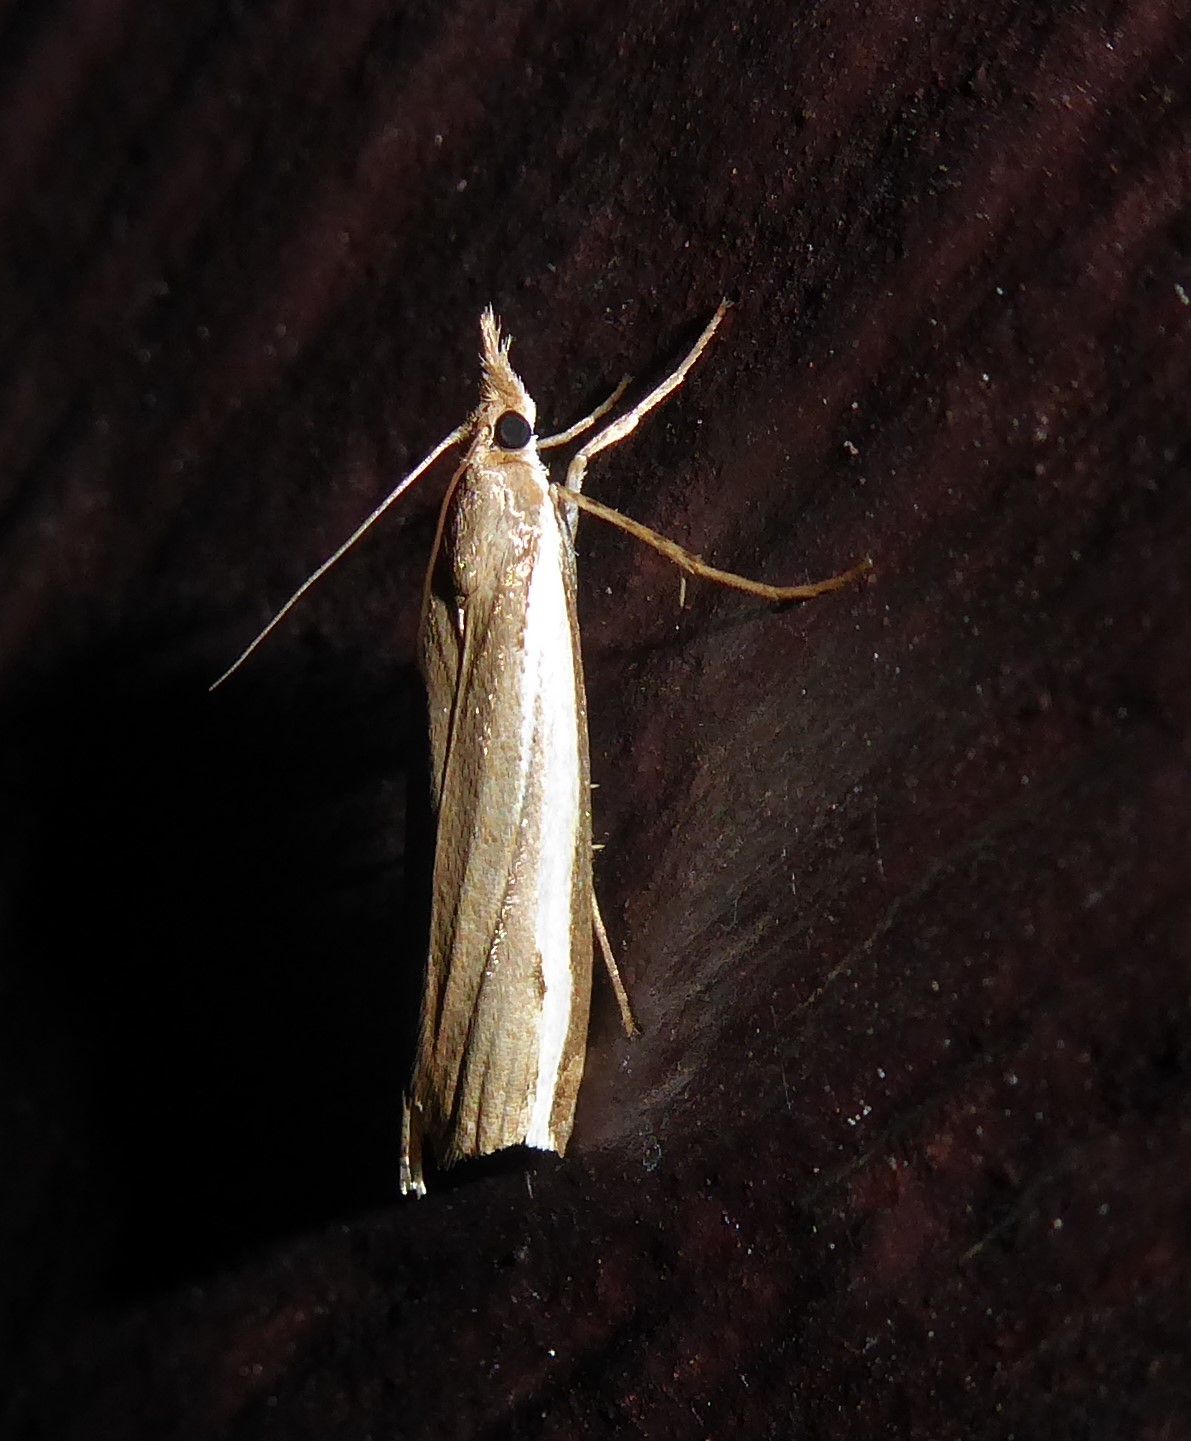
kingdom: Animalia
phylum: Arthropoda
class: Insecta
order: Lepidoptera
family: Crambidae
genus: Orocrambus
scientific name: Orocrambus flexuosellus
